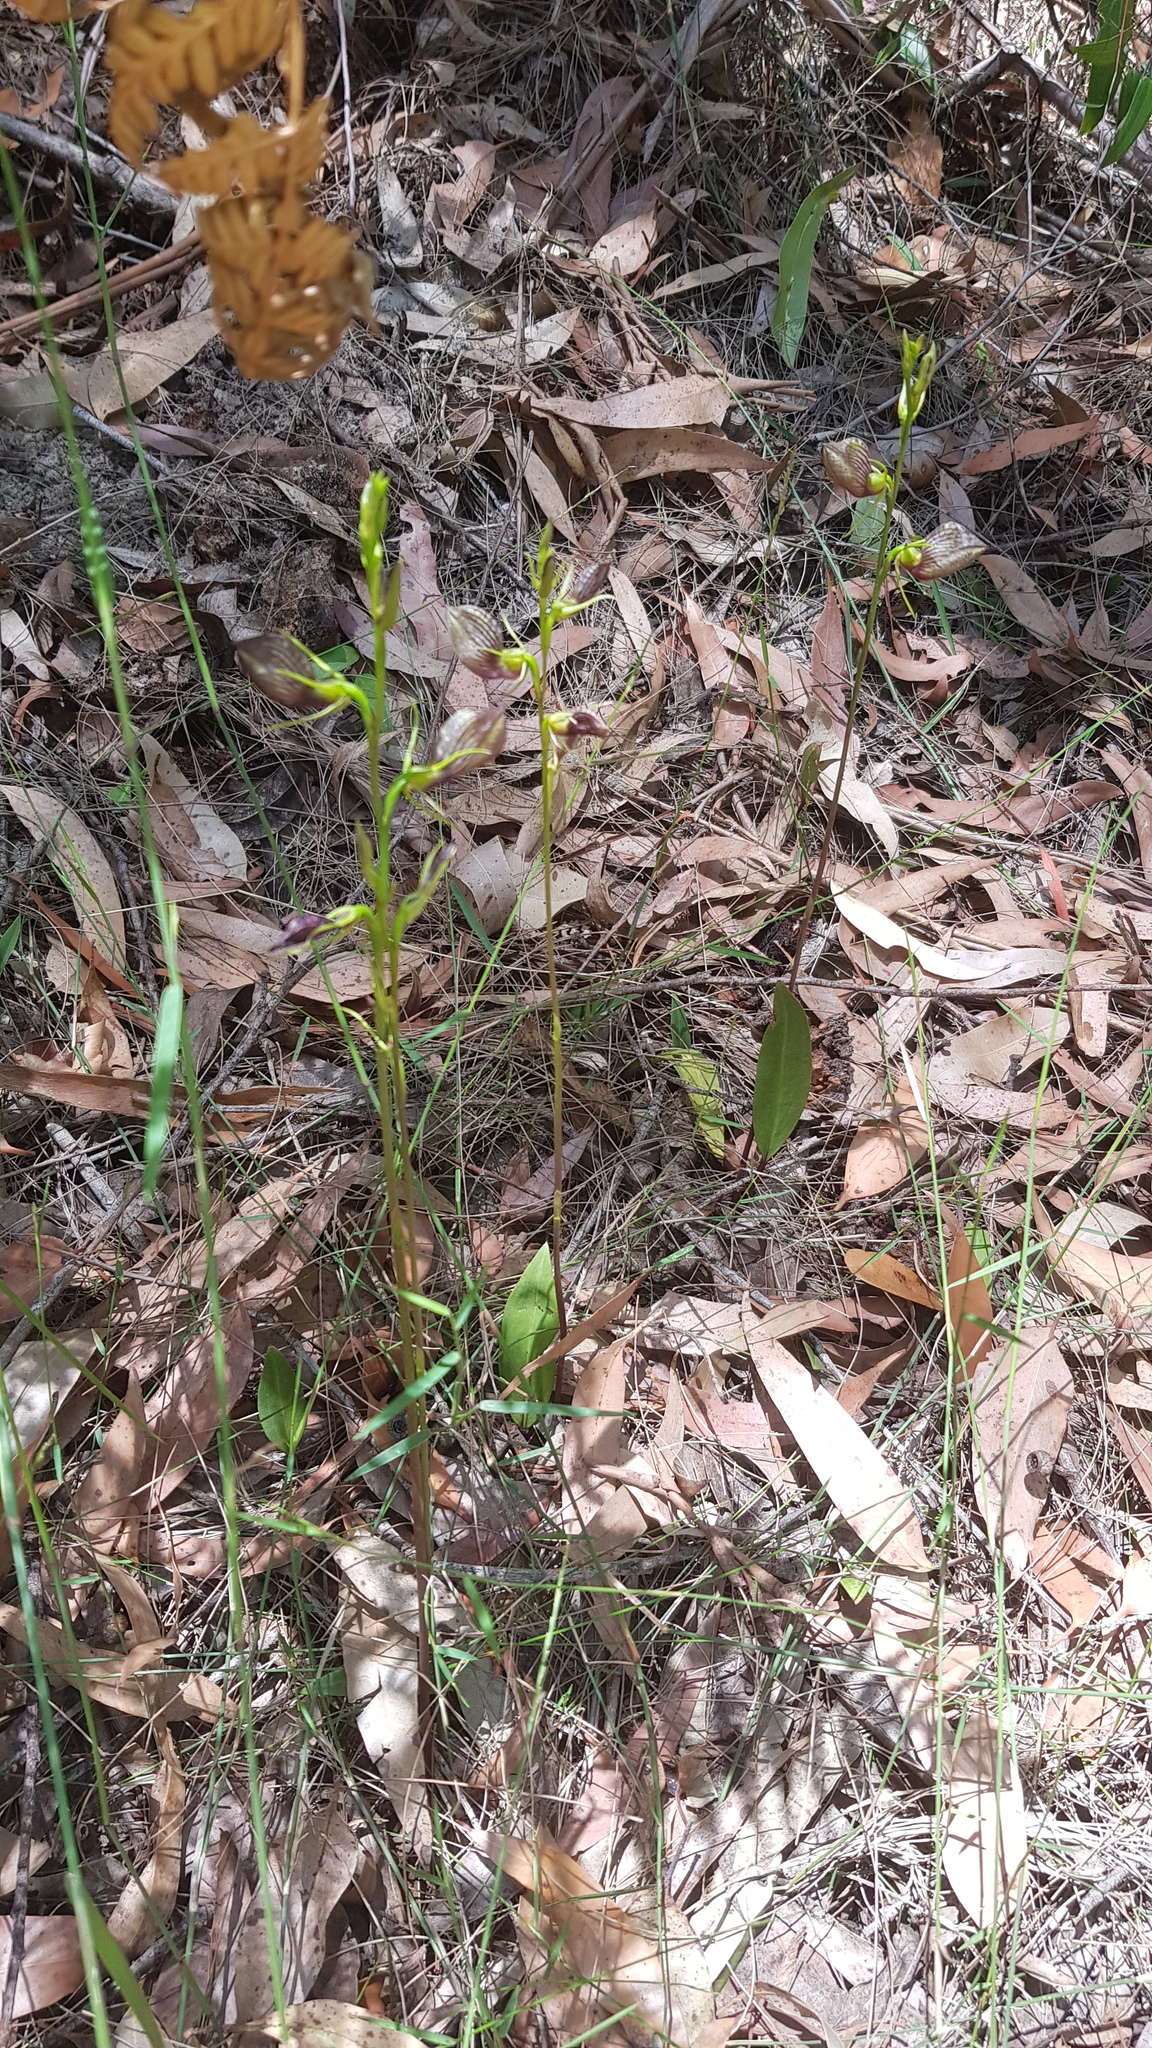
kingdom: Plantae
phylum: Tracheophyta
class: Liliopsida
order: Asparagales
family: Orchidaceae
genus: Cryptostylis
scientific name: Cryptostylis erecta
